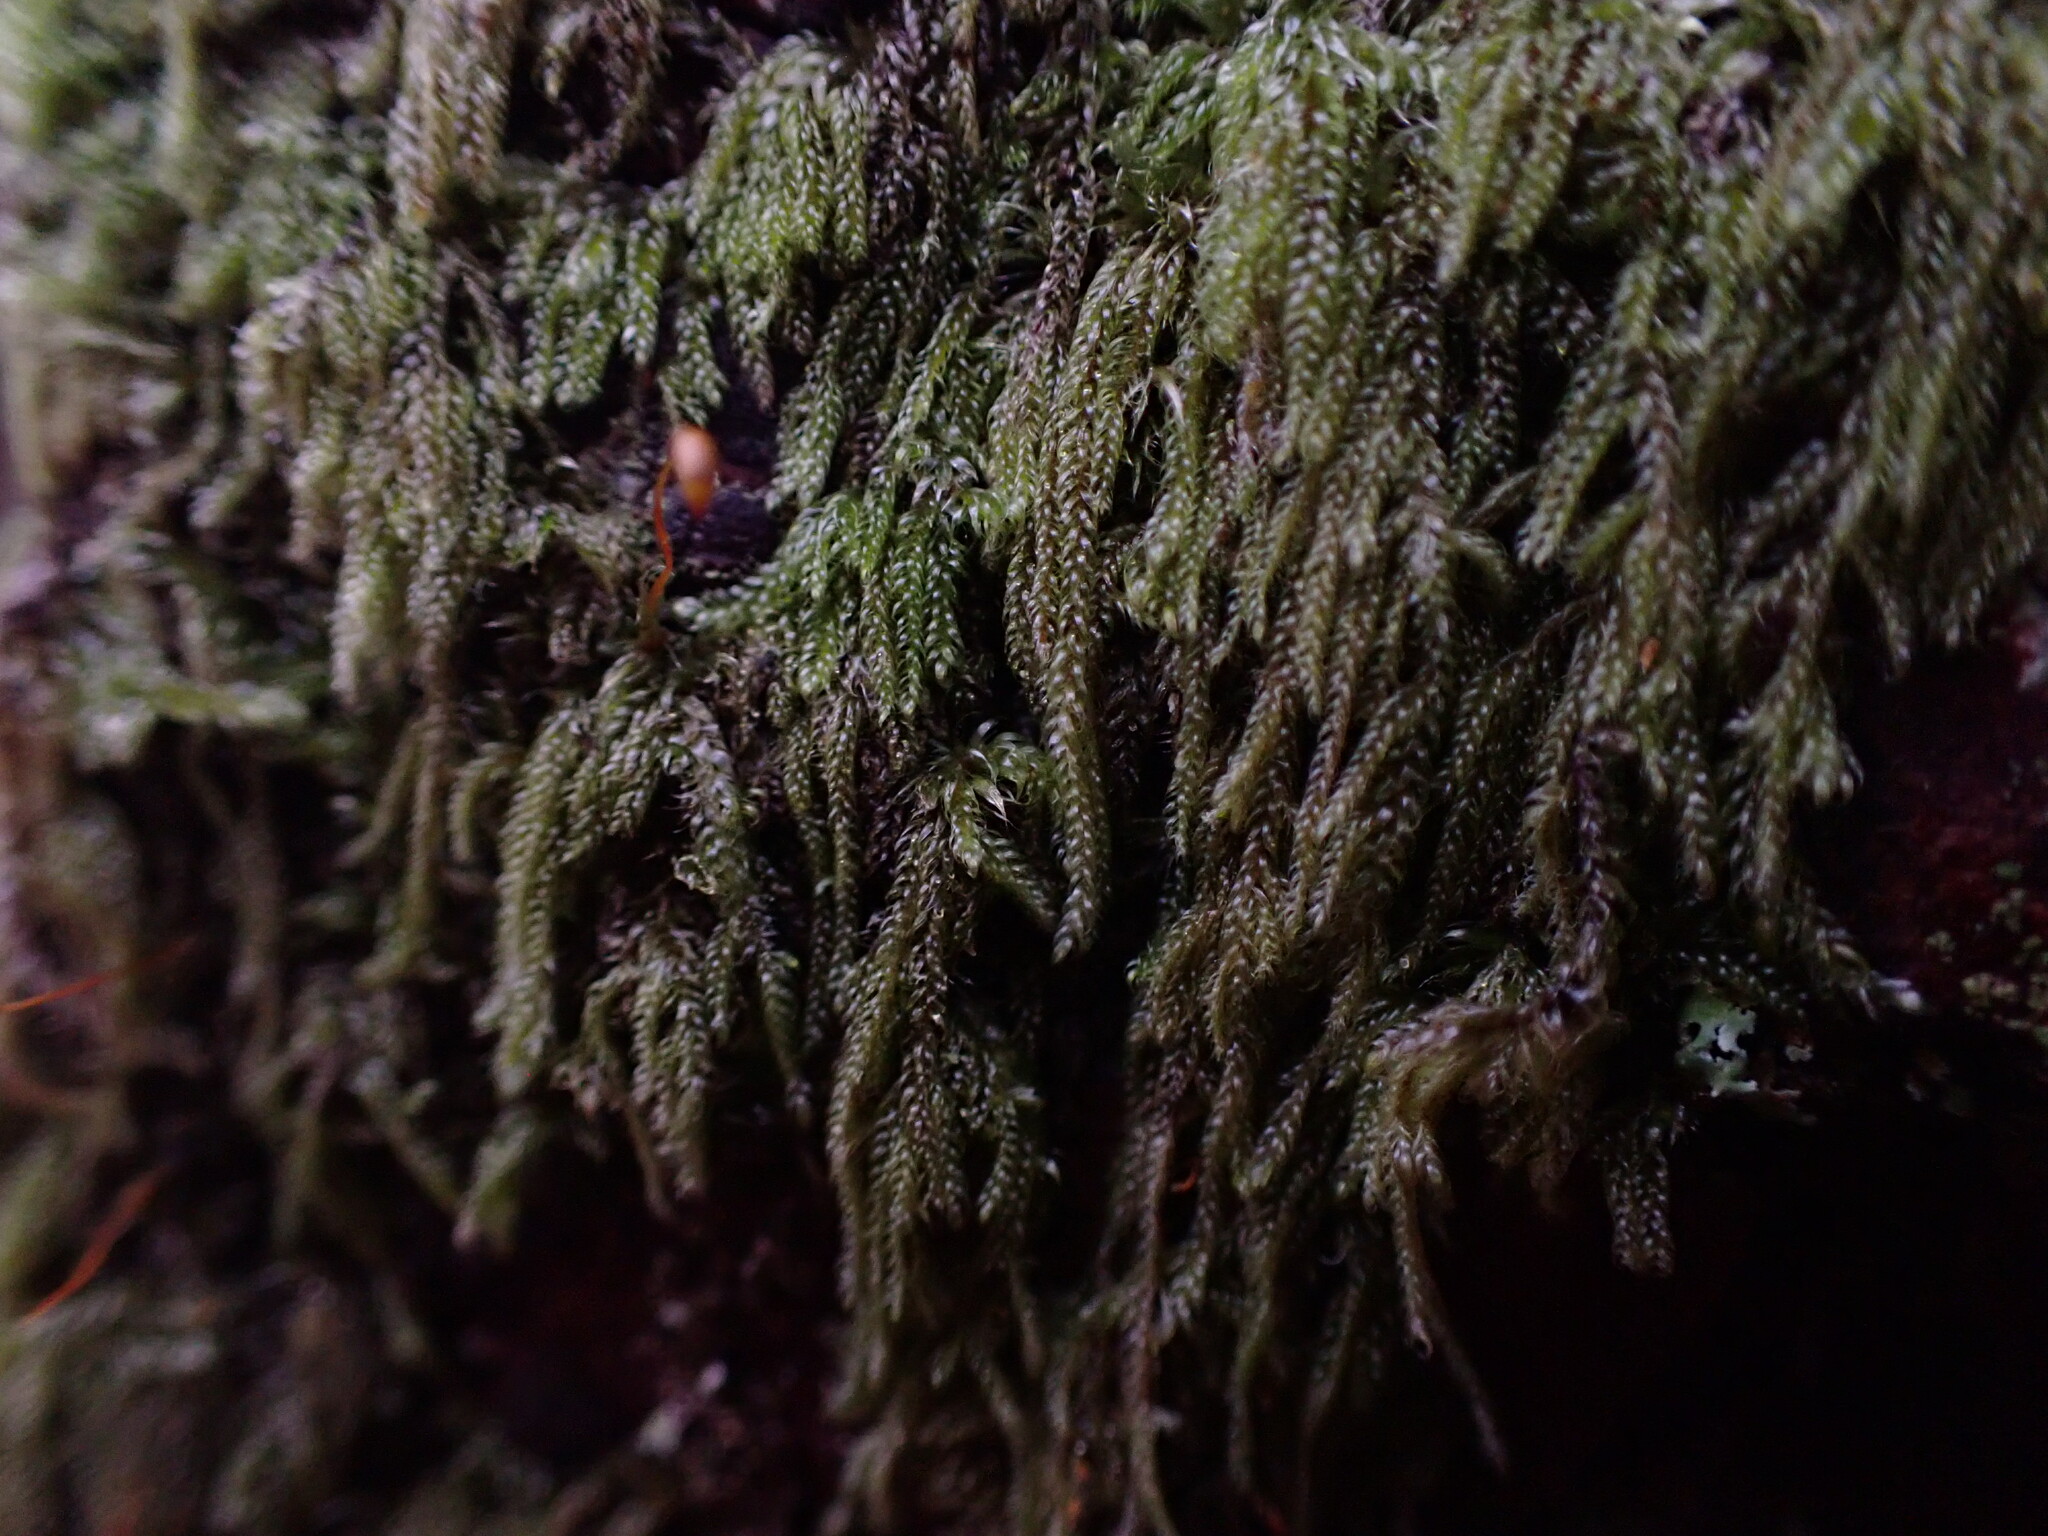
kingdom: Plantae
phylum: Bryophyta
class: Bryopsida
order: Hypnales
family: Pylaisiadelphaceae
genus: Trochophyllohypnum
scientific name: Trochophyllohypnum circinale
